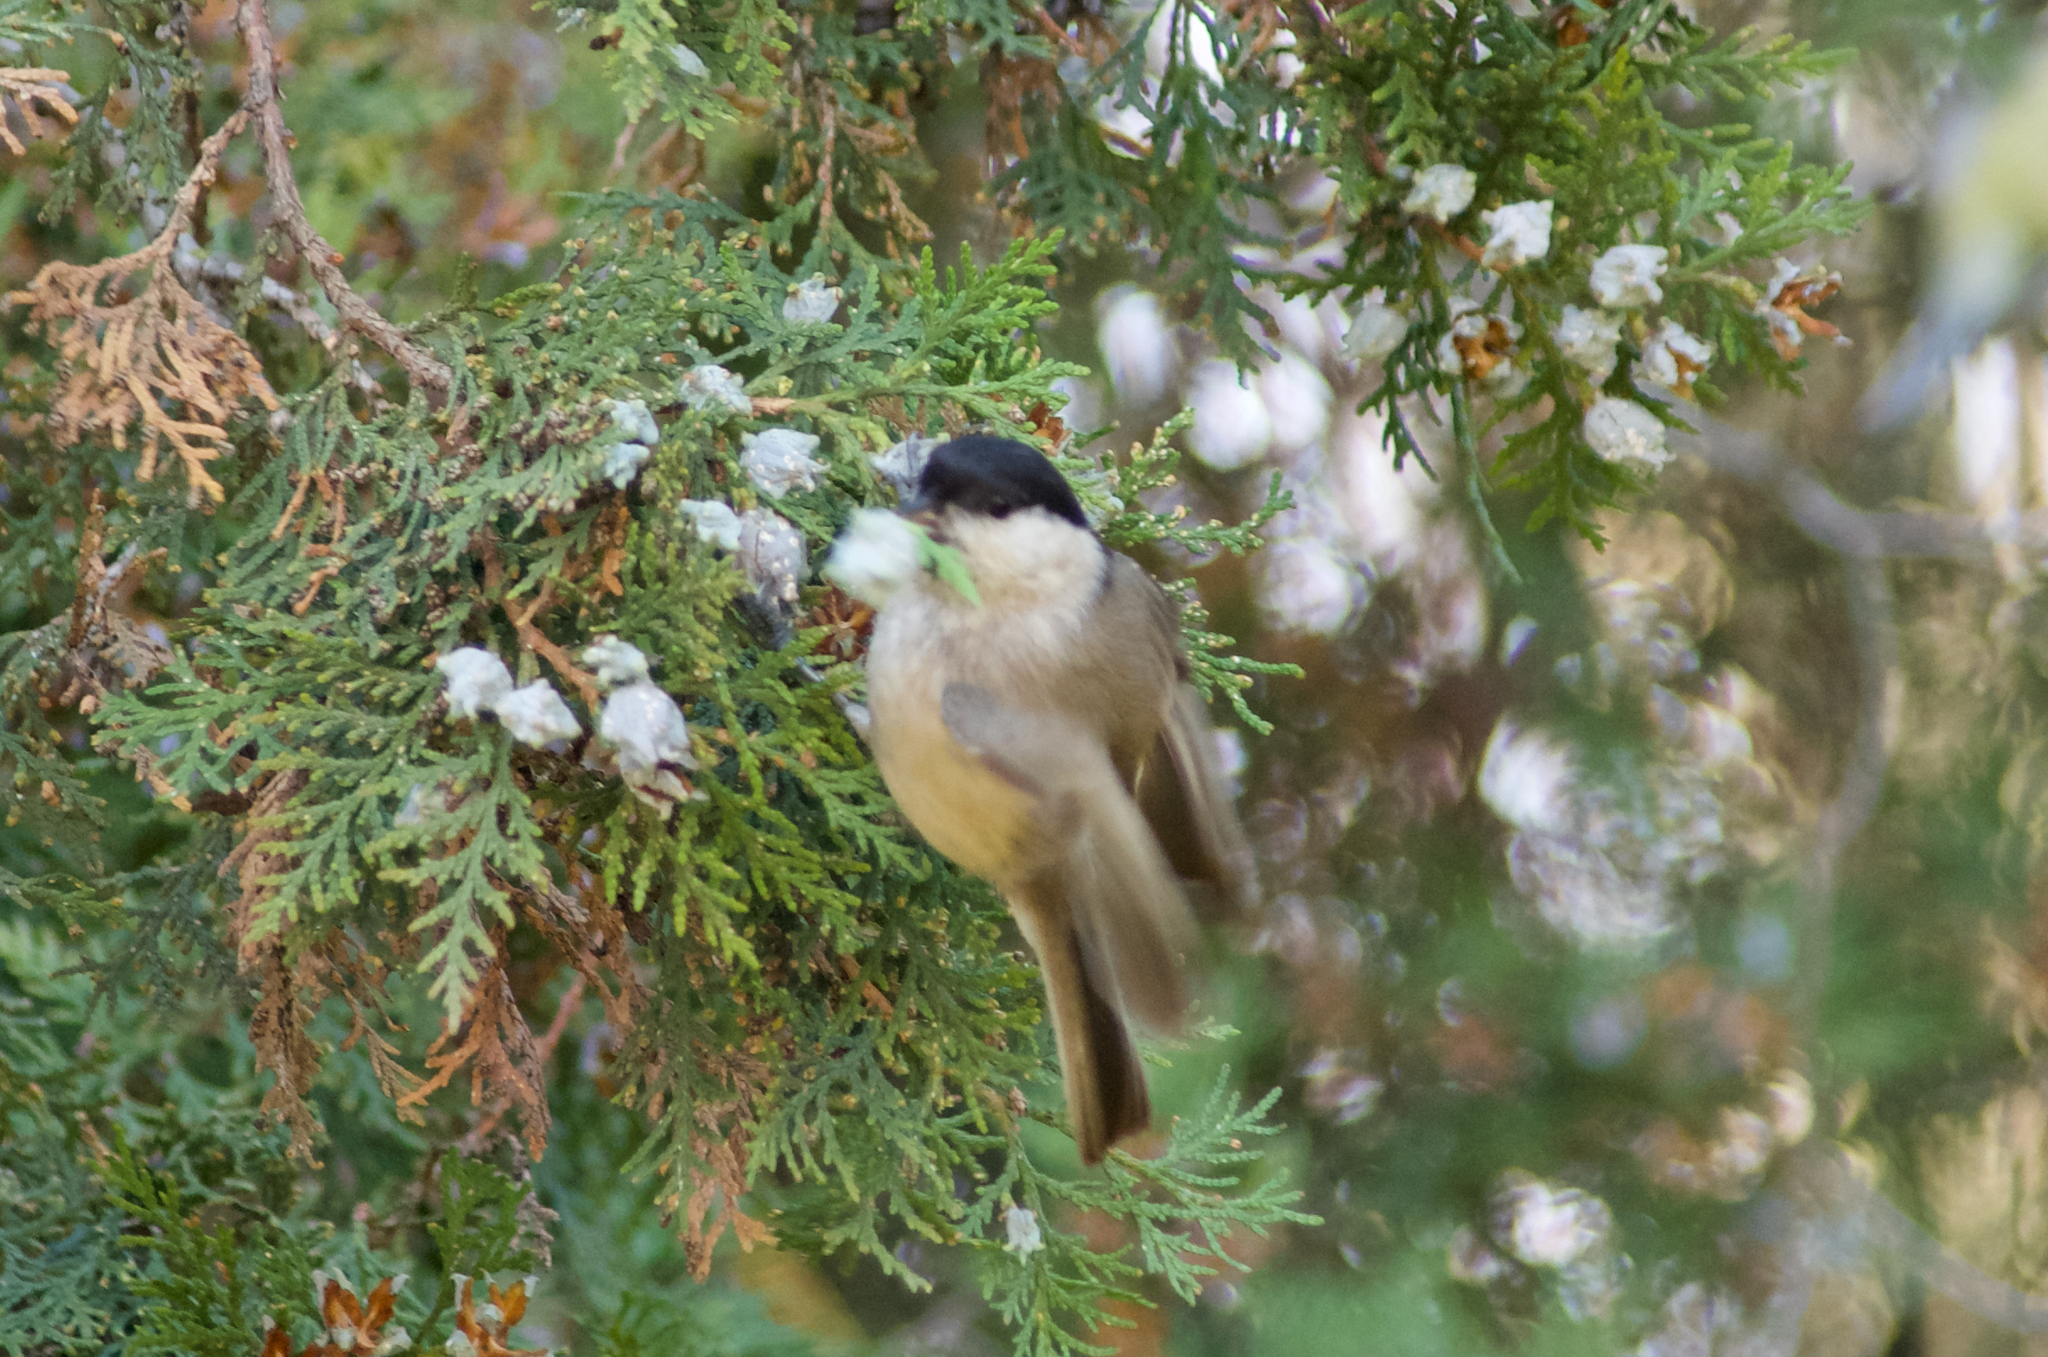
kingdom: Animalia
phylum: Chordata
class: Aves
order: Passeriformes
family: Paridae
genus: Poecile
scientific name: Poecile palustris
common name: Marsh tit
